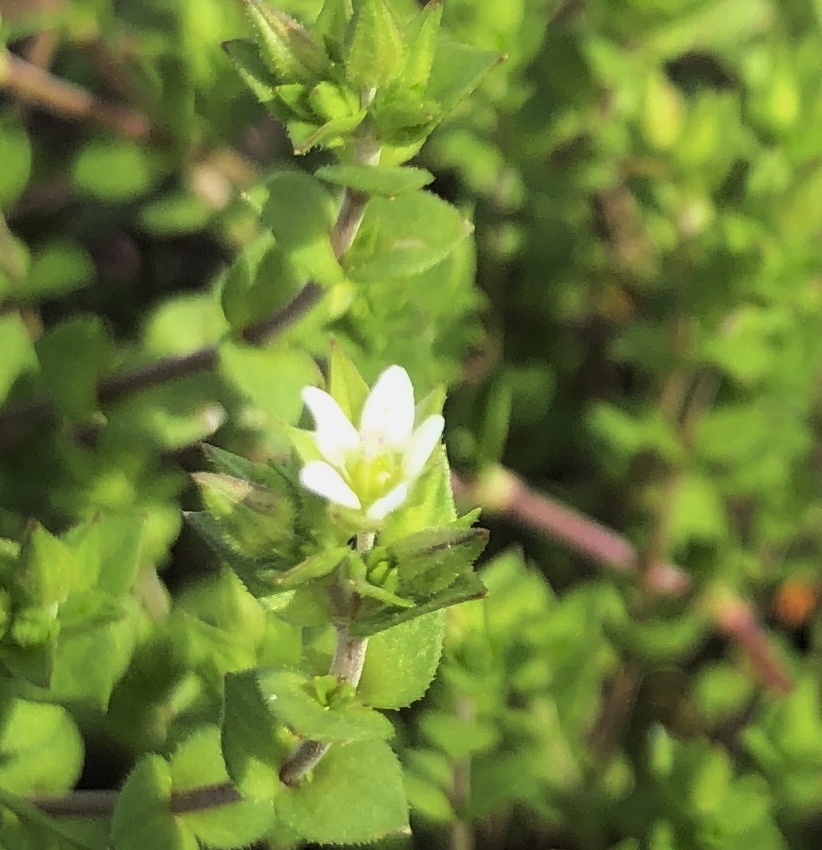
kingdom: Plantae
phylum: Tracheophyta
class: Magnoliopsida
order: Caryophyllales
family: Caryophyllaceae
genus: Arenaria
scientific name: Arenaria serpyllifolia
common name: Thyme-leaved sandwort
